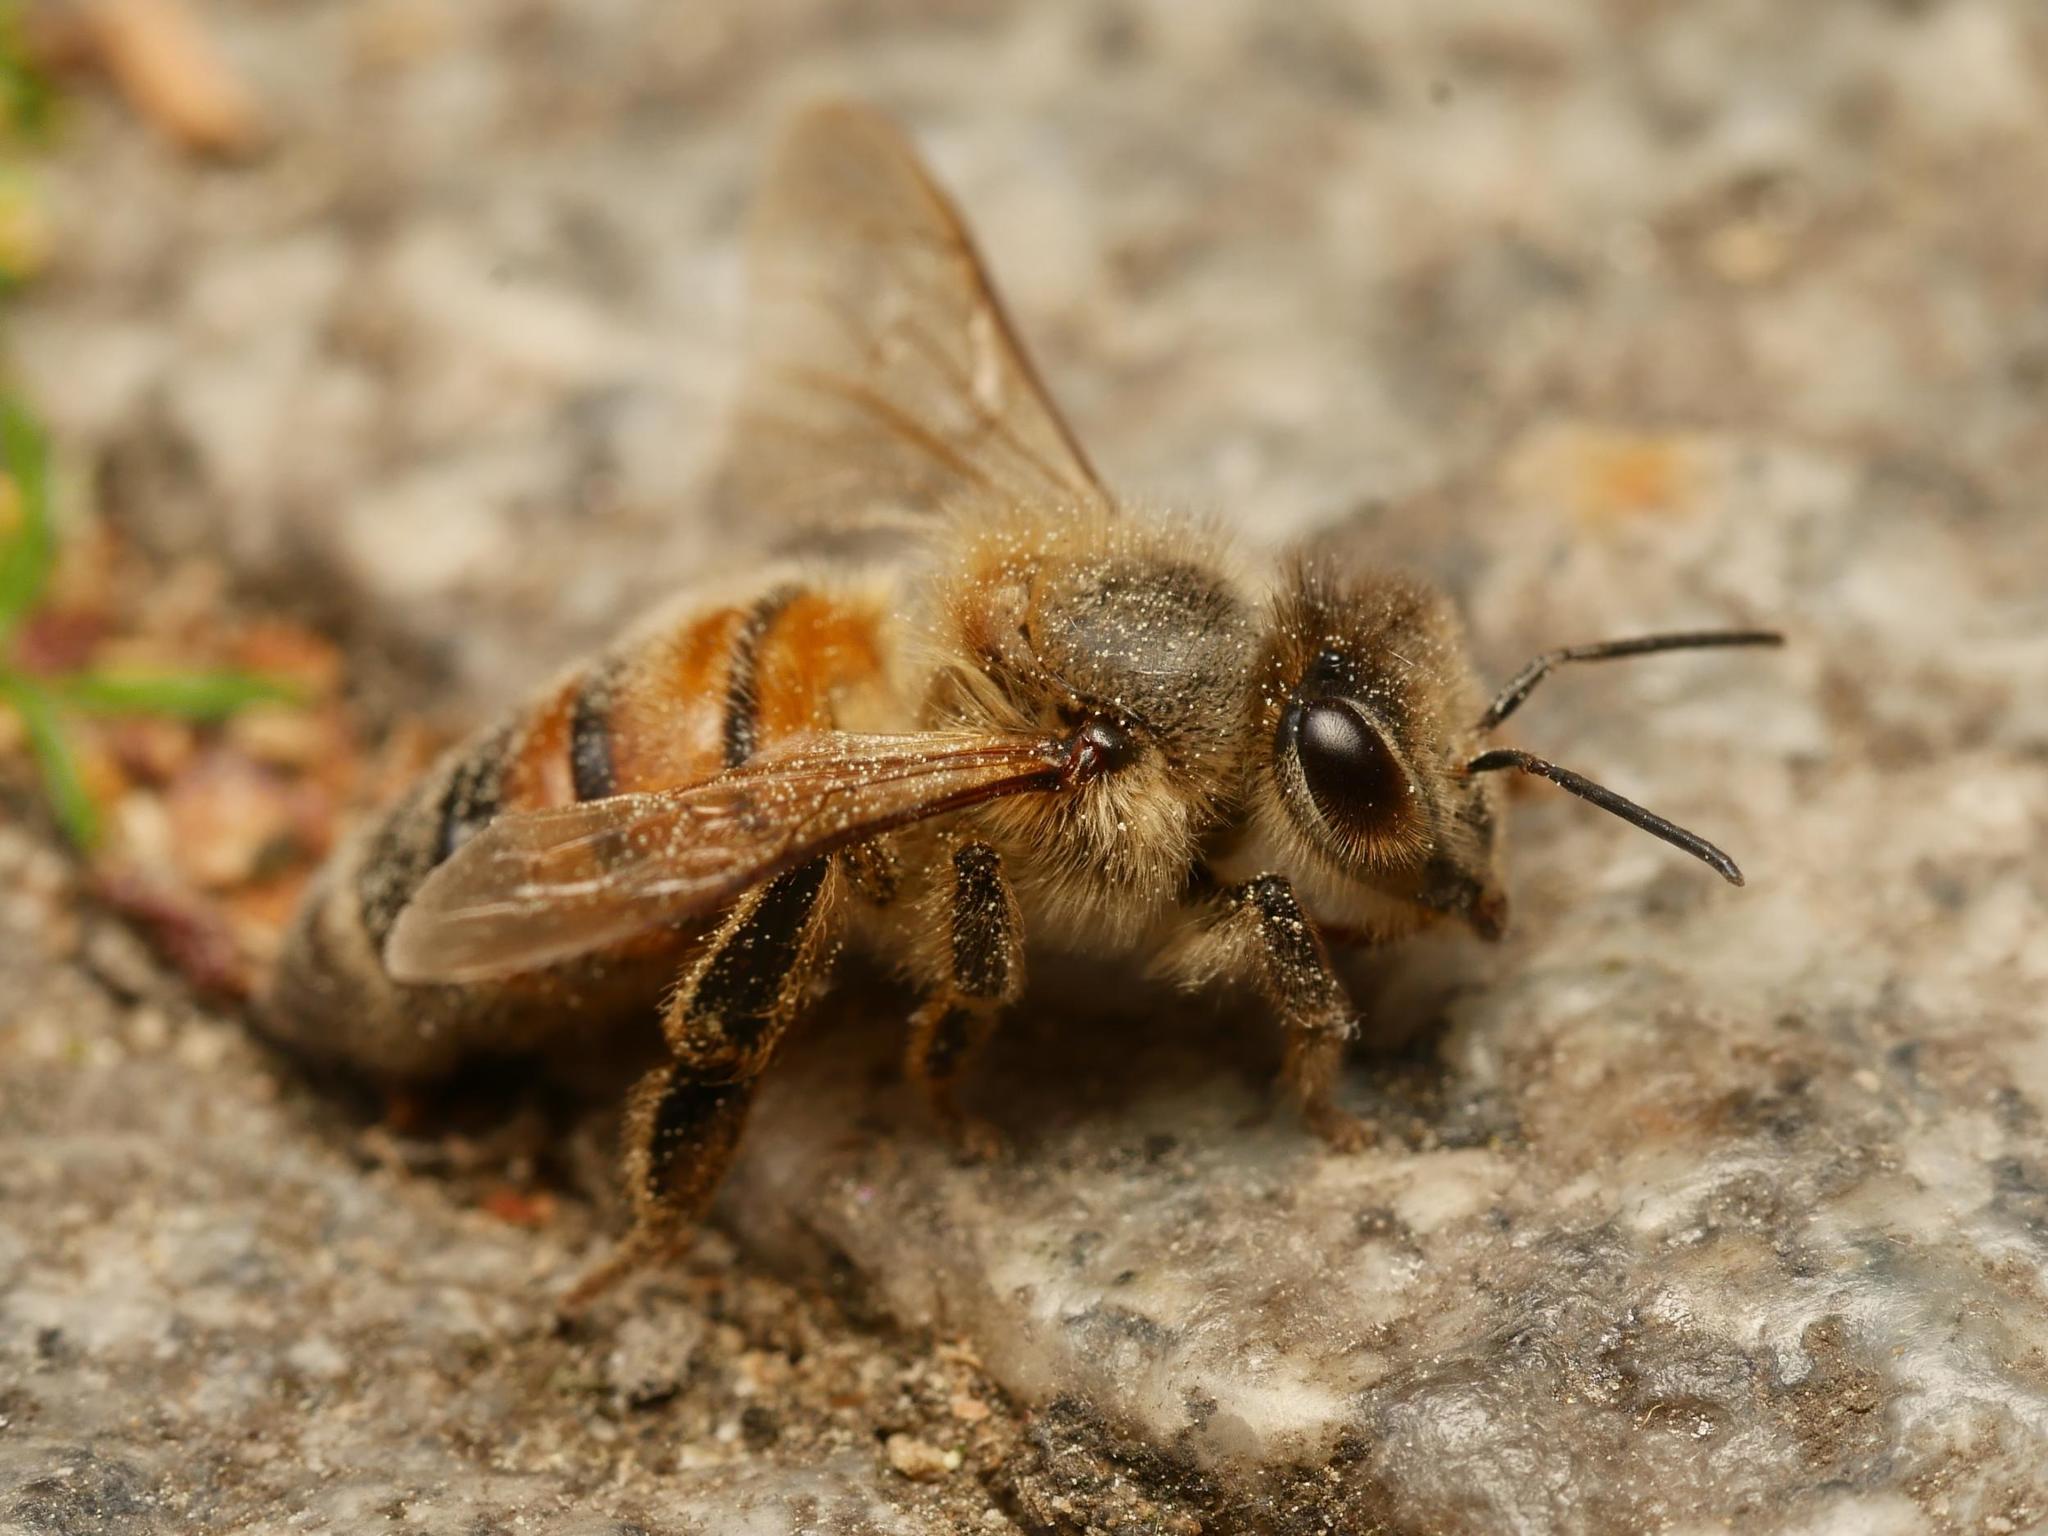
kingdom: Animalia
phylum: Arthropoda
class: Insecta
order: Hymenoptera
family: Apidae
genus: Apis
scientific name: Apis mellifera
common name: Honey bee
